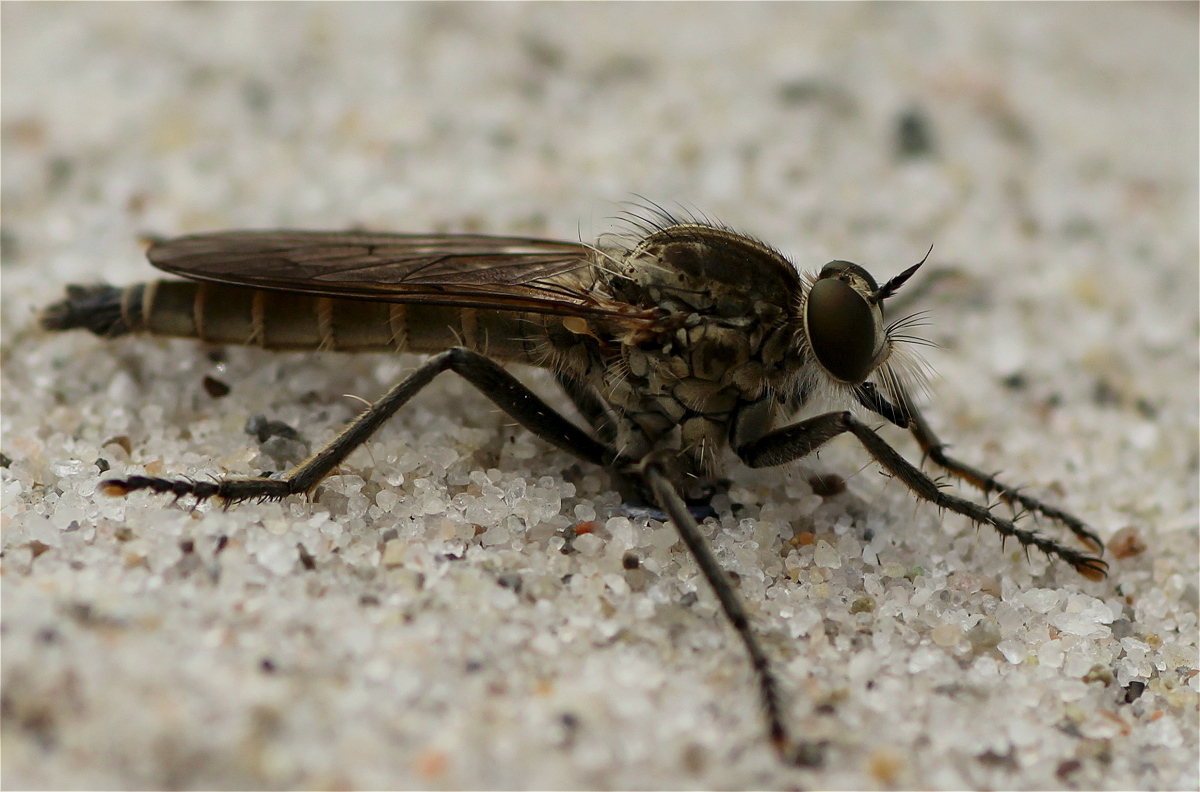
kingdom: Animalia
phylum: Arthropoda
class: Insecta
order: Diptera
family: Asilidae
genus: Philonicus
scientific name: Philonicus albiceps
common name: Dune robberfly
